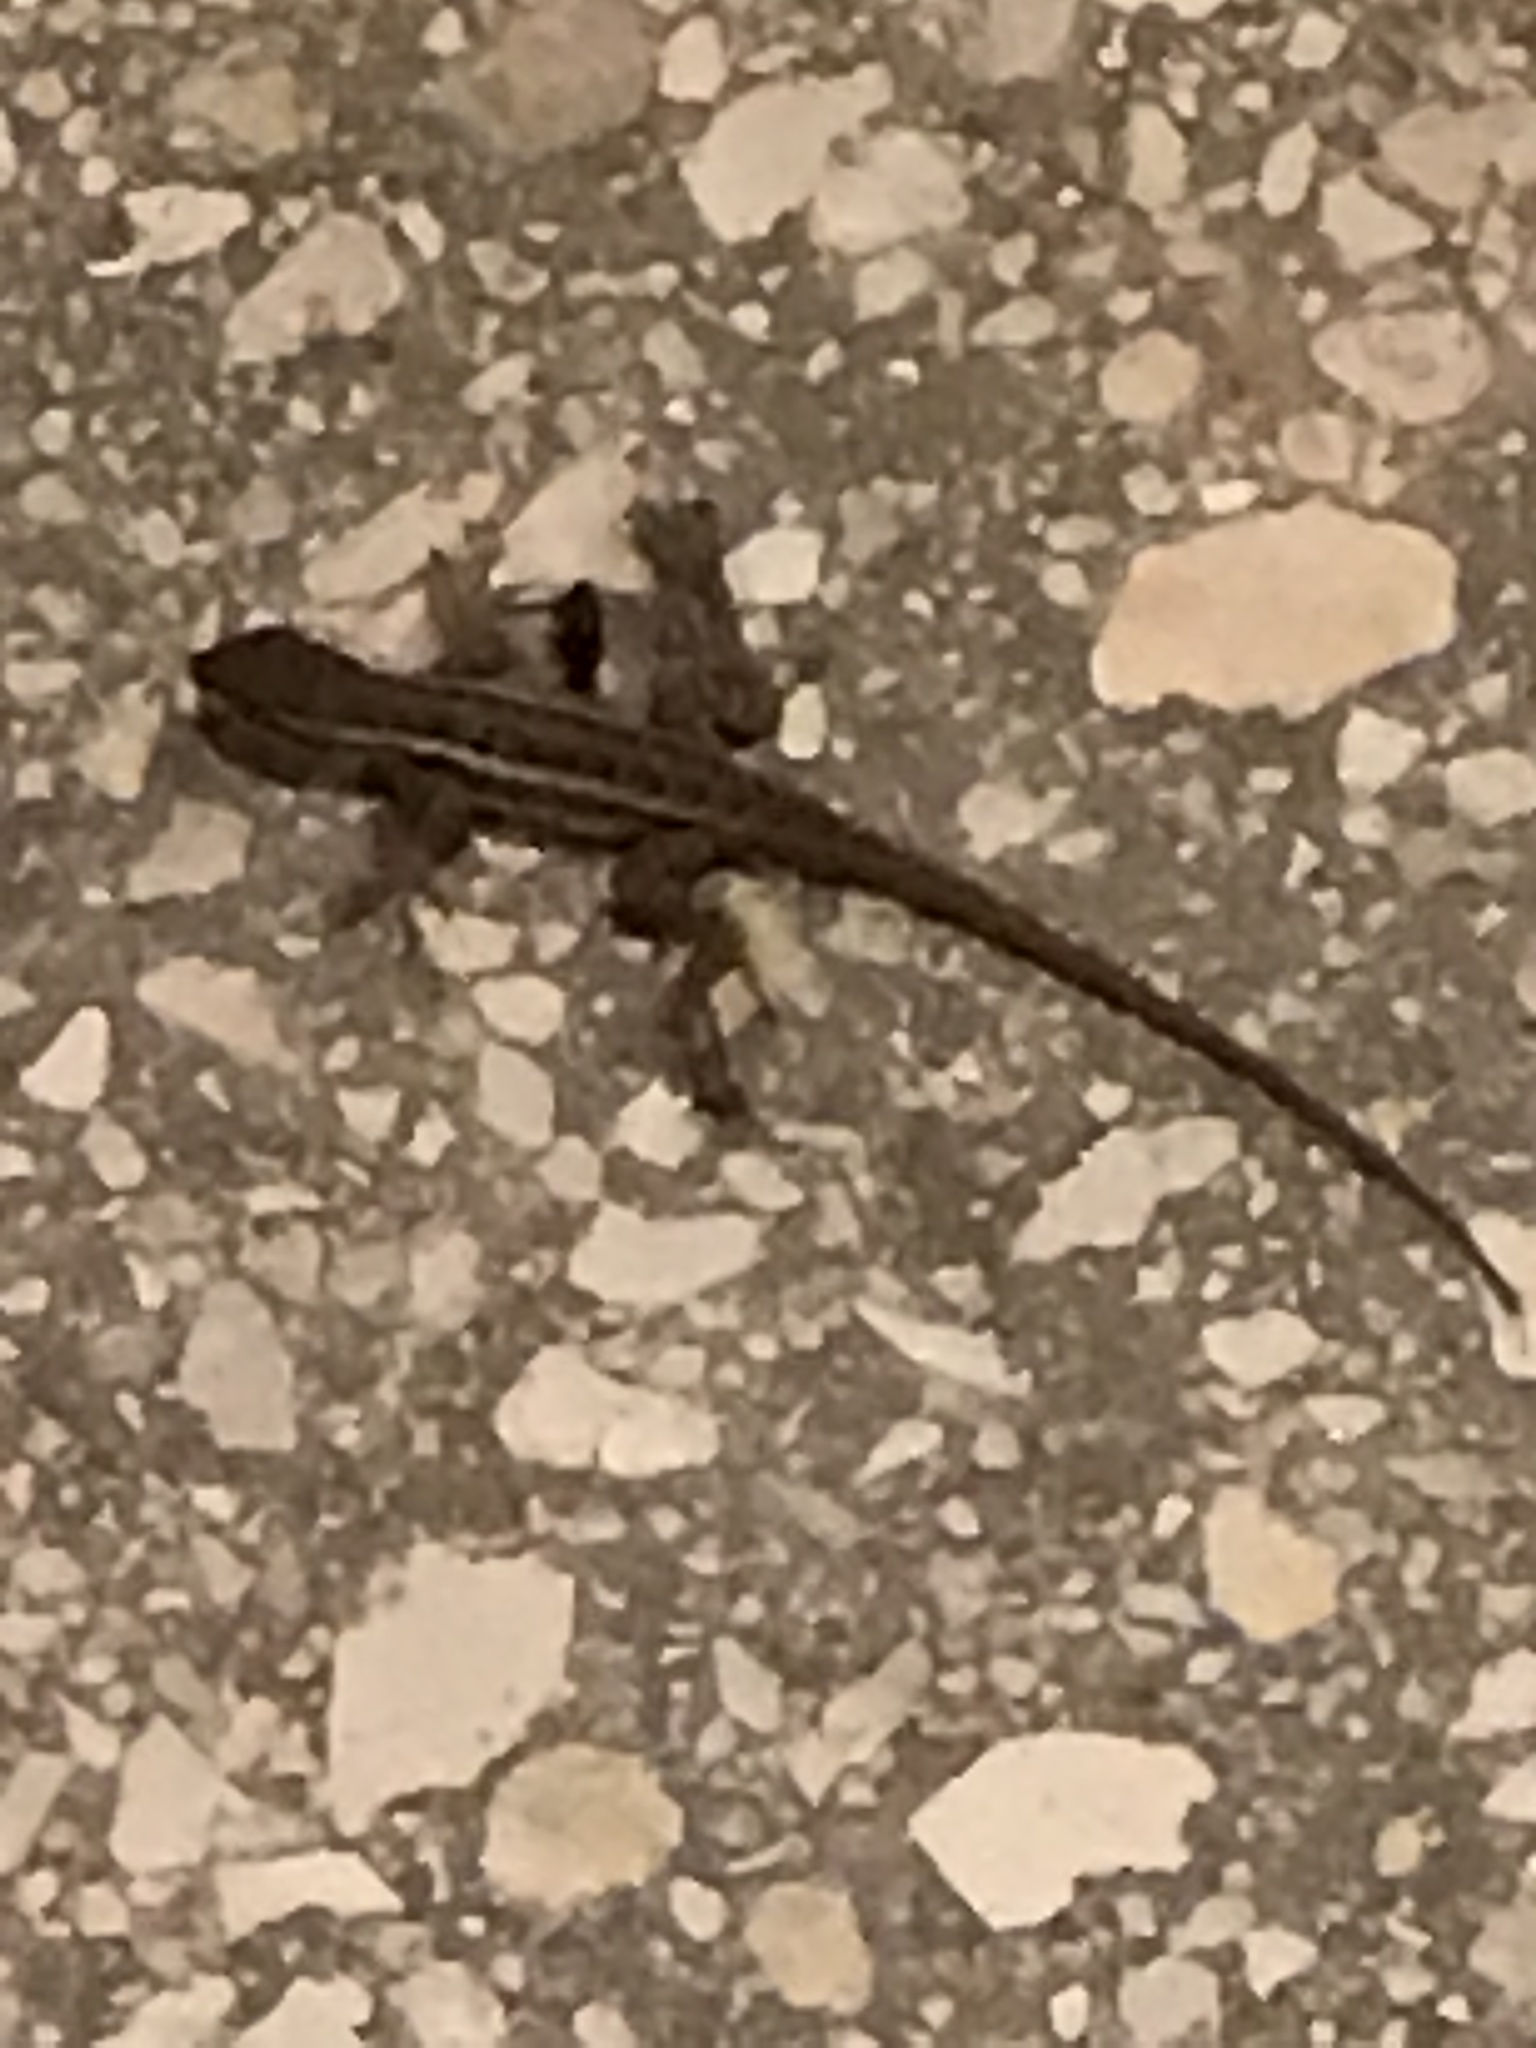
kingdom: Animalia
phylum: Chordata
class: Squamata
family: Phrynosomatidae
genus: Sceloporus
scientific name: Sceloporus variabilis
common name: Rosebelly lizard
